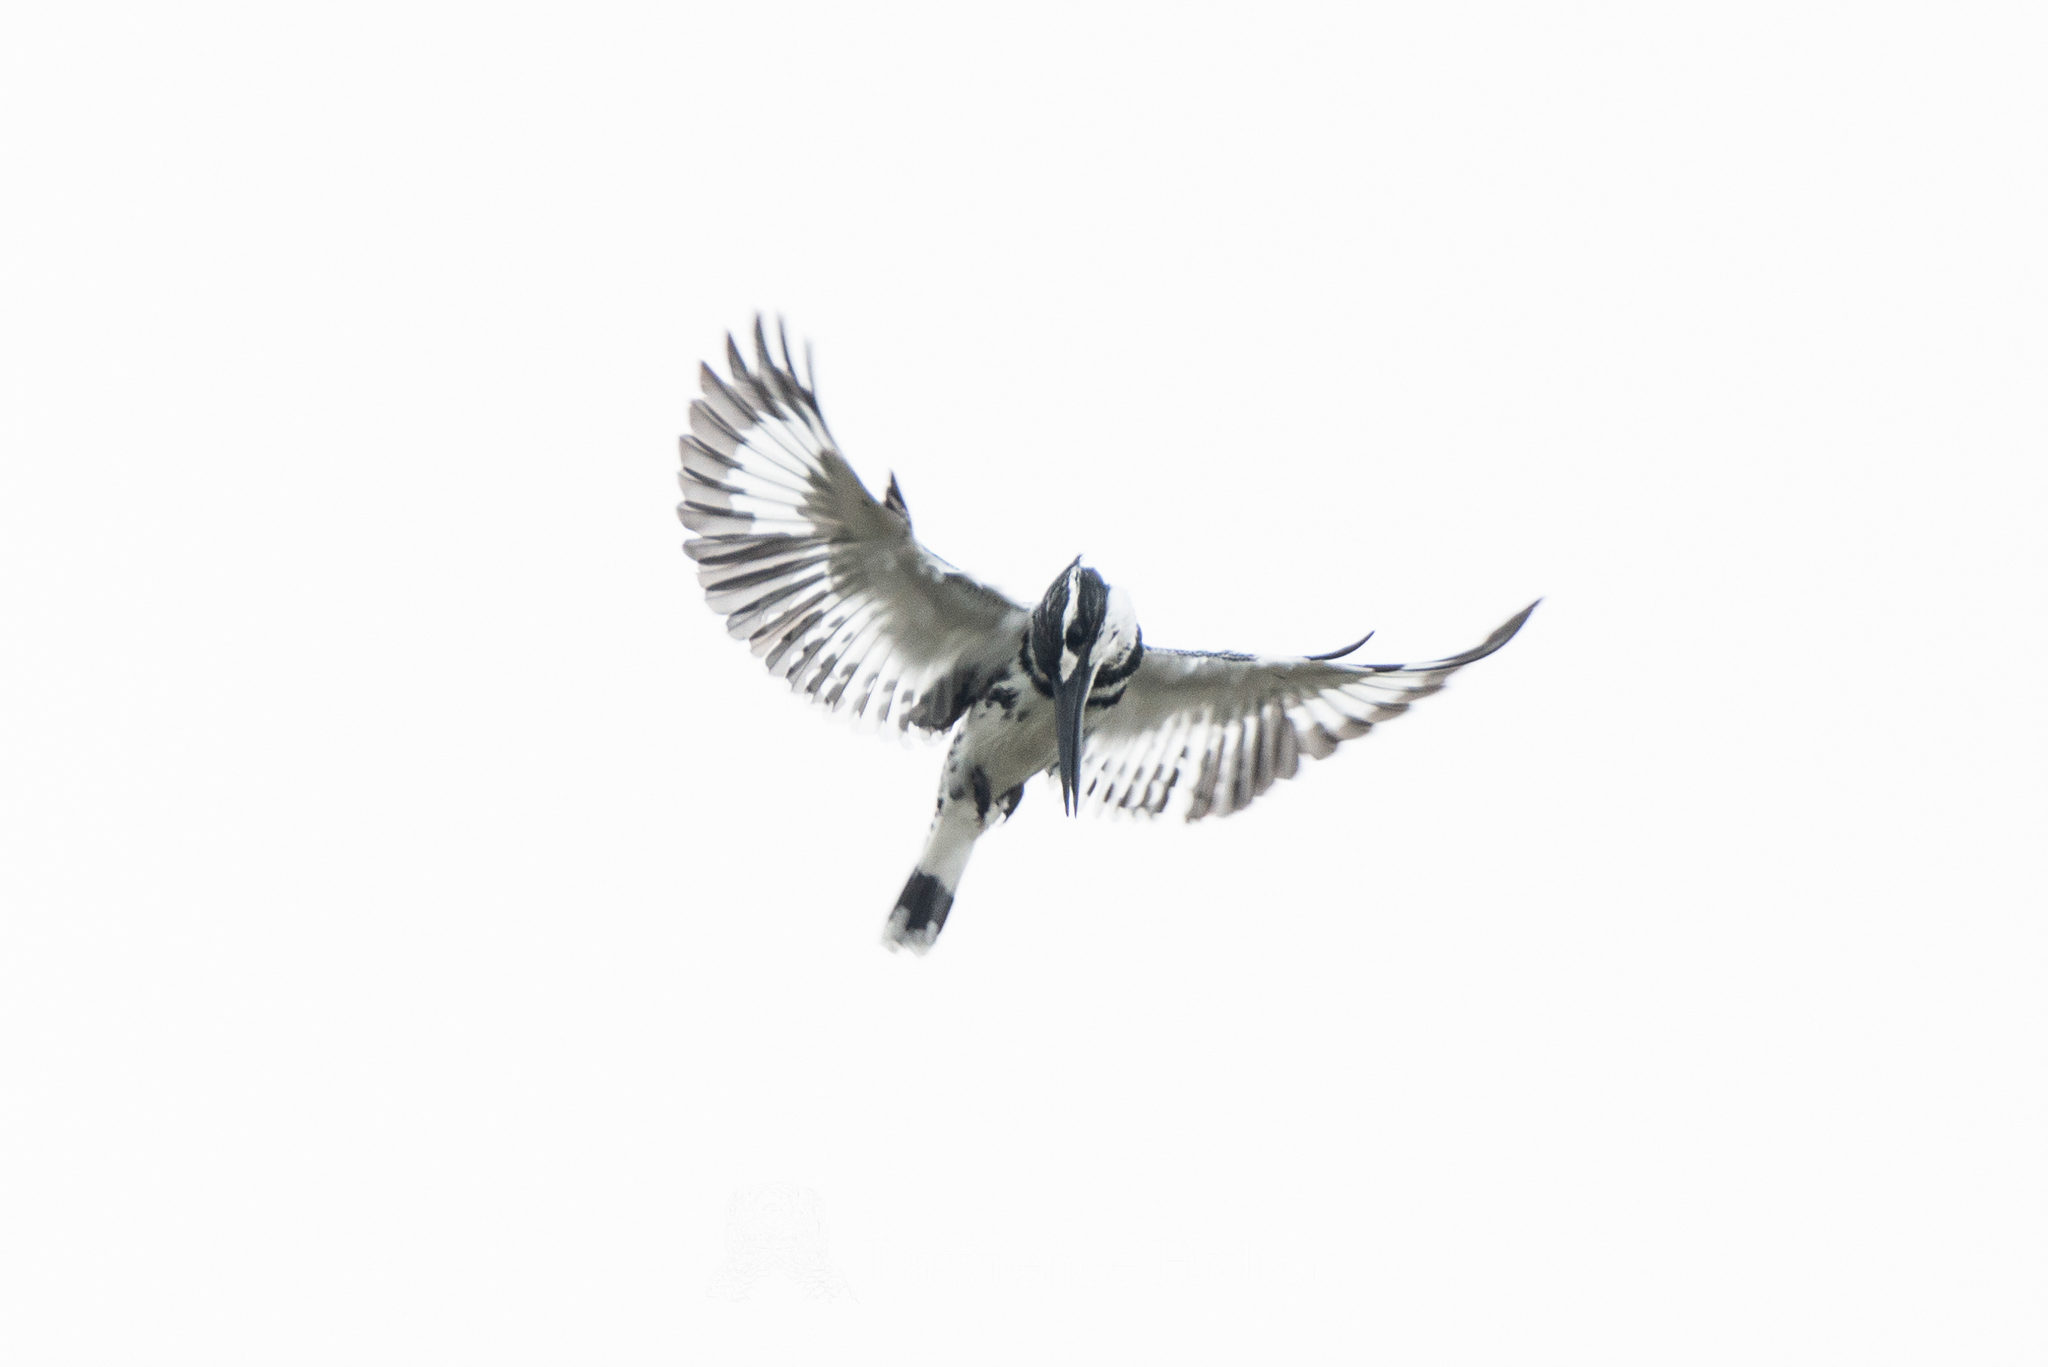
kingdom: Animalia
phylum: Chordata
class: Aves
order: Coraciiformes
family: Alcedinidae
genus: Ceryle
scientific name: Ceryle rudis
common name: Pied kingfisher
